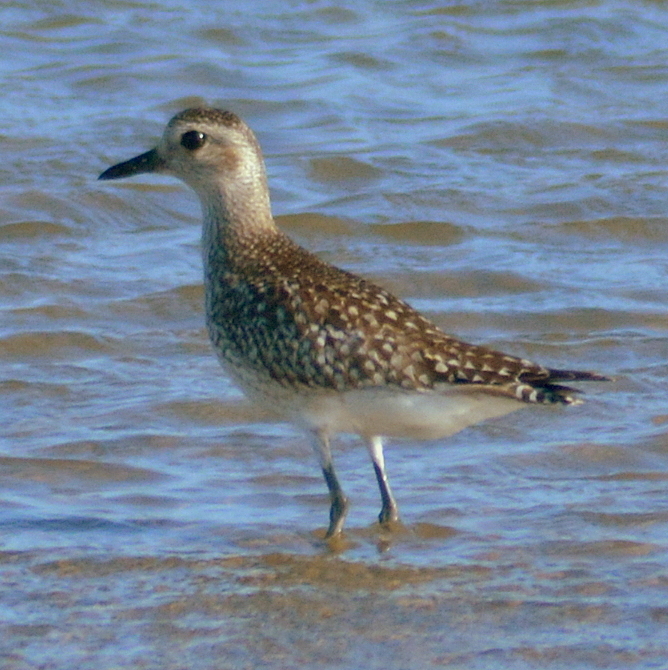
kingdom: Animalia
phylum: Chordata
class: Aves
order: Charadriiformes
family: Charadriidae
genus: Pluvialis
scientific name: Pluvialis squatarola
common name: Grey plover
